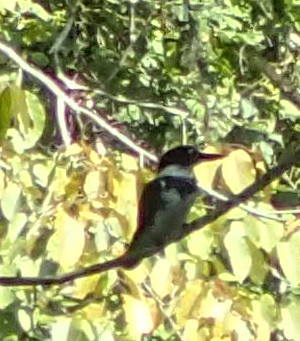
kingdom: Animalia
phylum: Chordata
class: Aves
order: Coraciiformes
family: Alcedinidae
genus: Megaceryle
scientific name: Megaceryle alcyon
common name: Belted kingfisher
